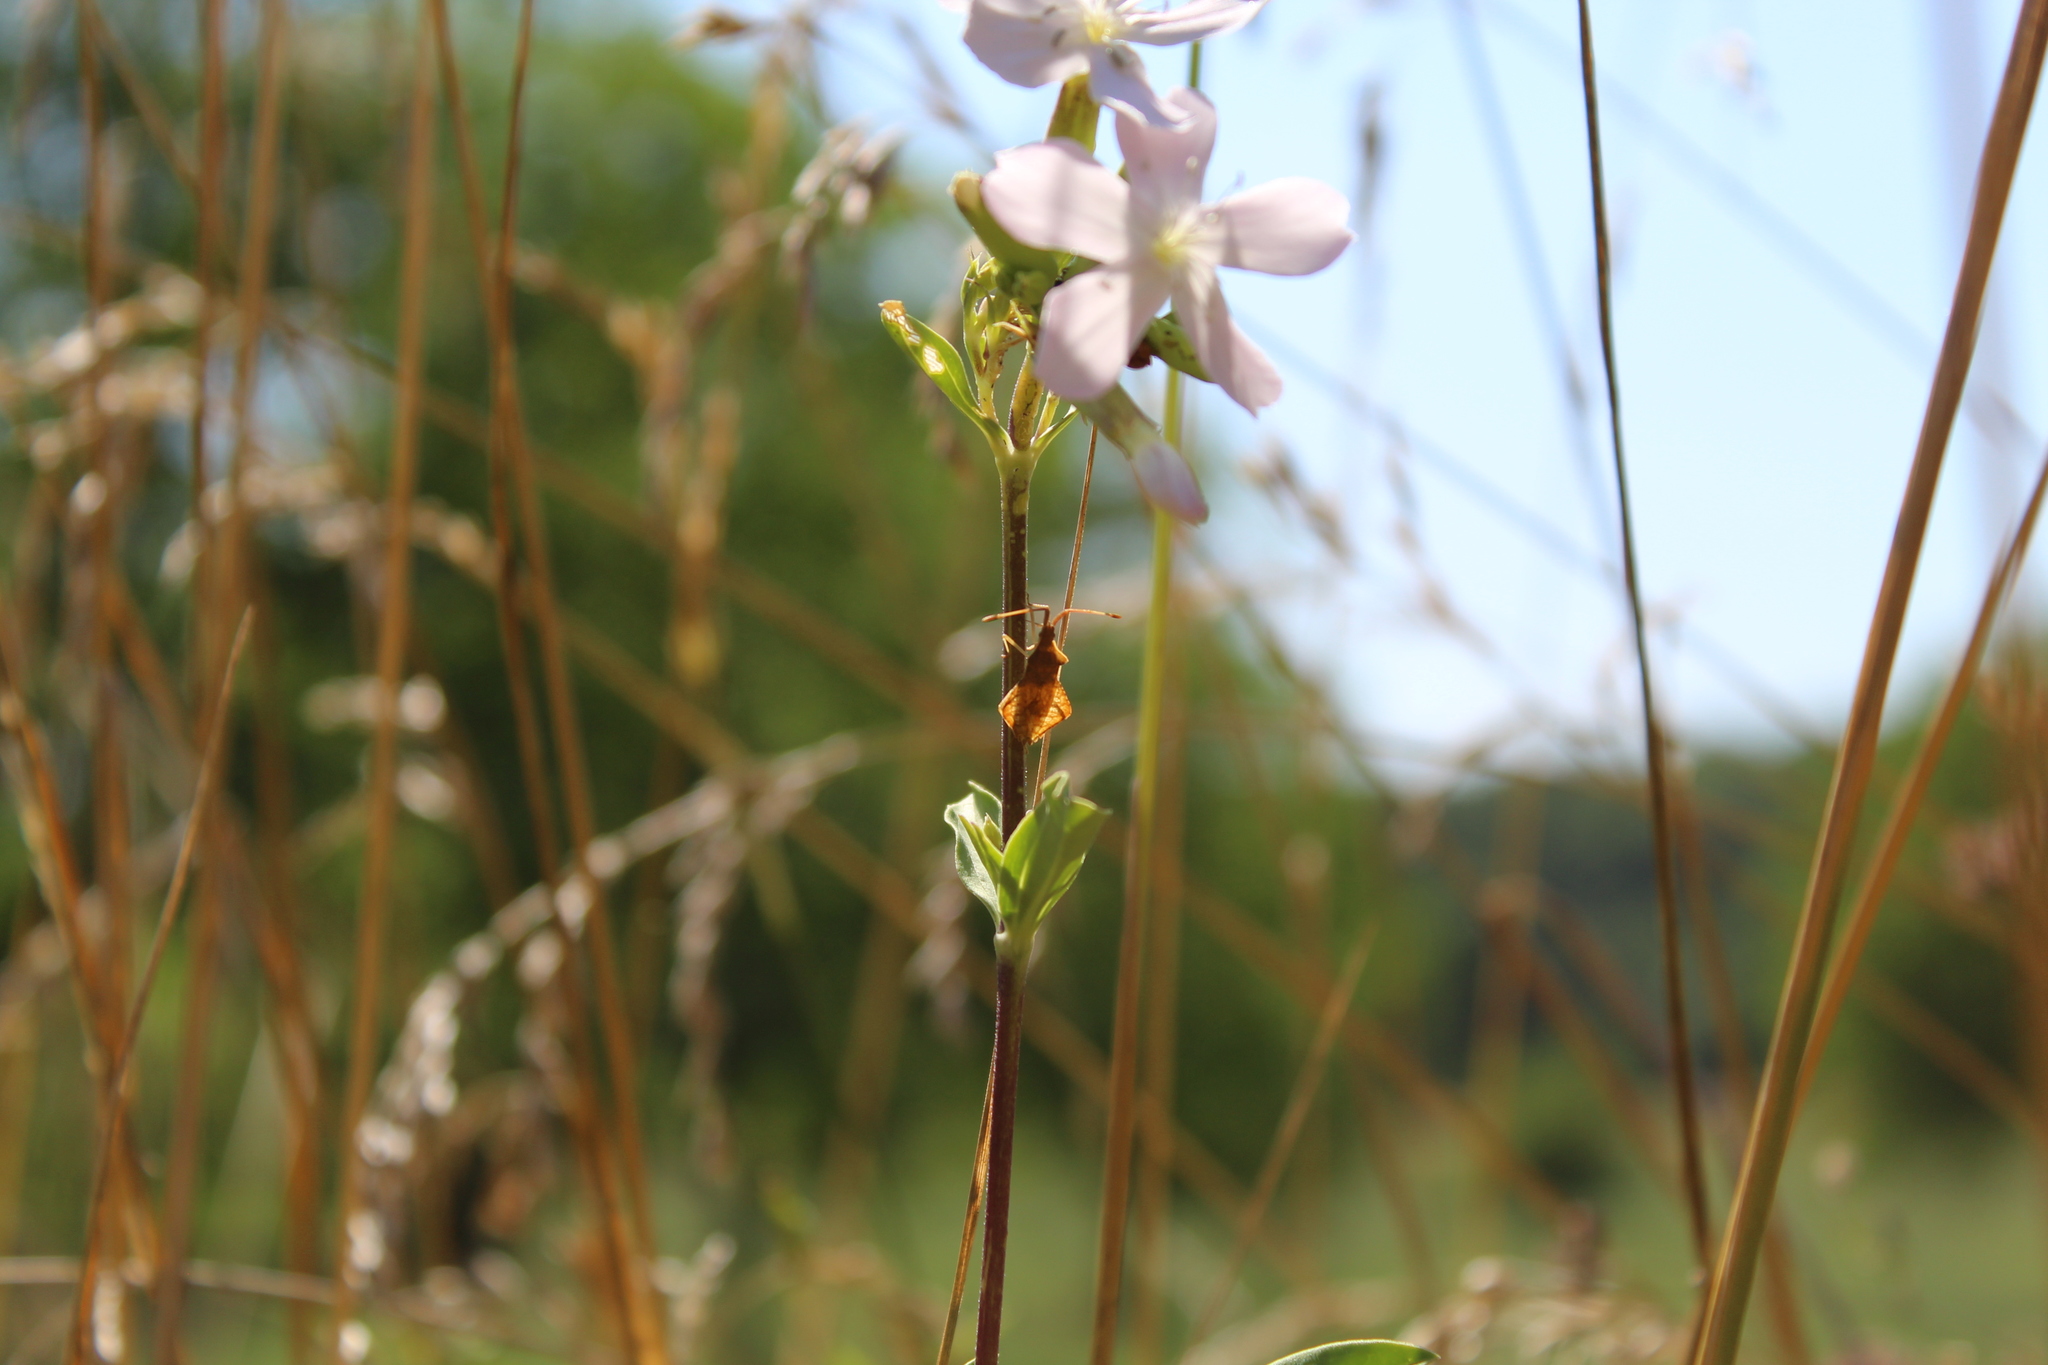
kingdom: Animalia
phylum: Arthropoda
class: Insecta
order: Hemiptera
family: Coreidae
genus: Syromastus
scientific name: Syromastus rhombeus
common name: Rhombic leatherbug
